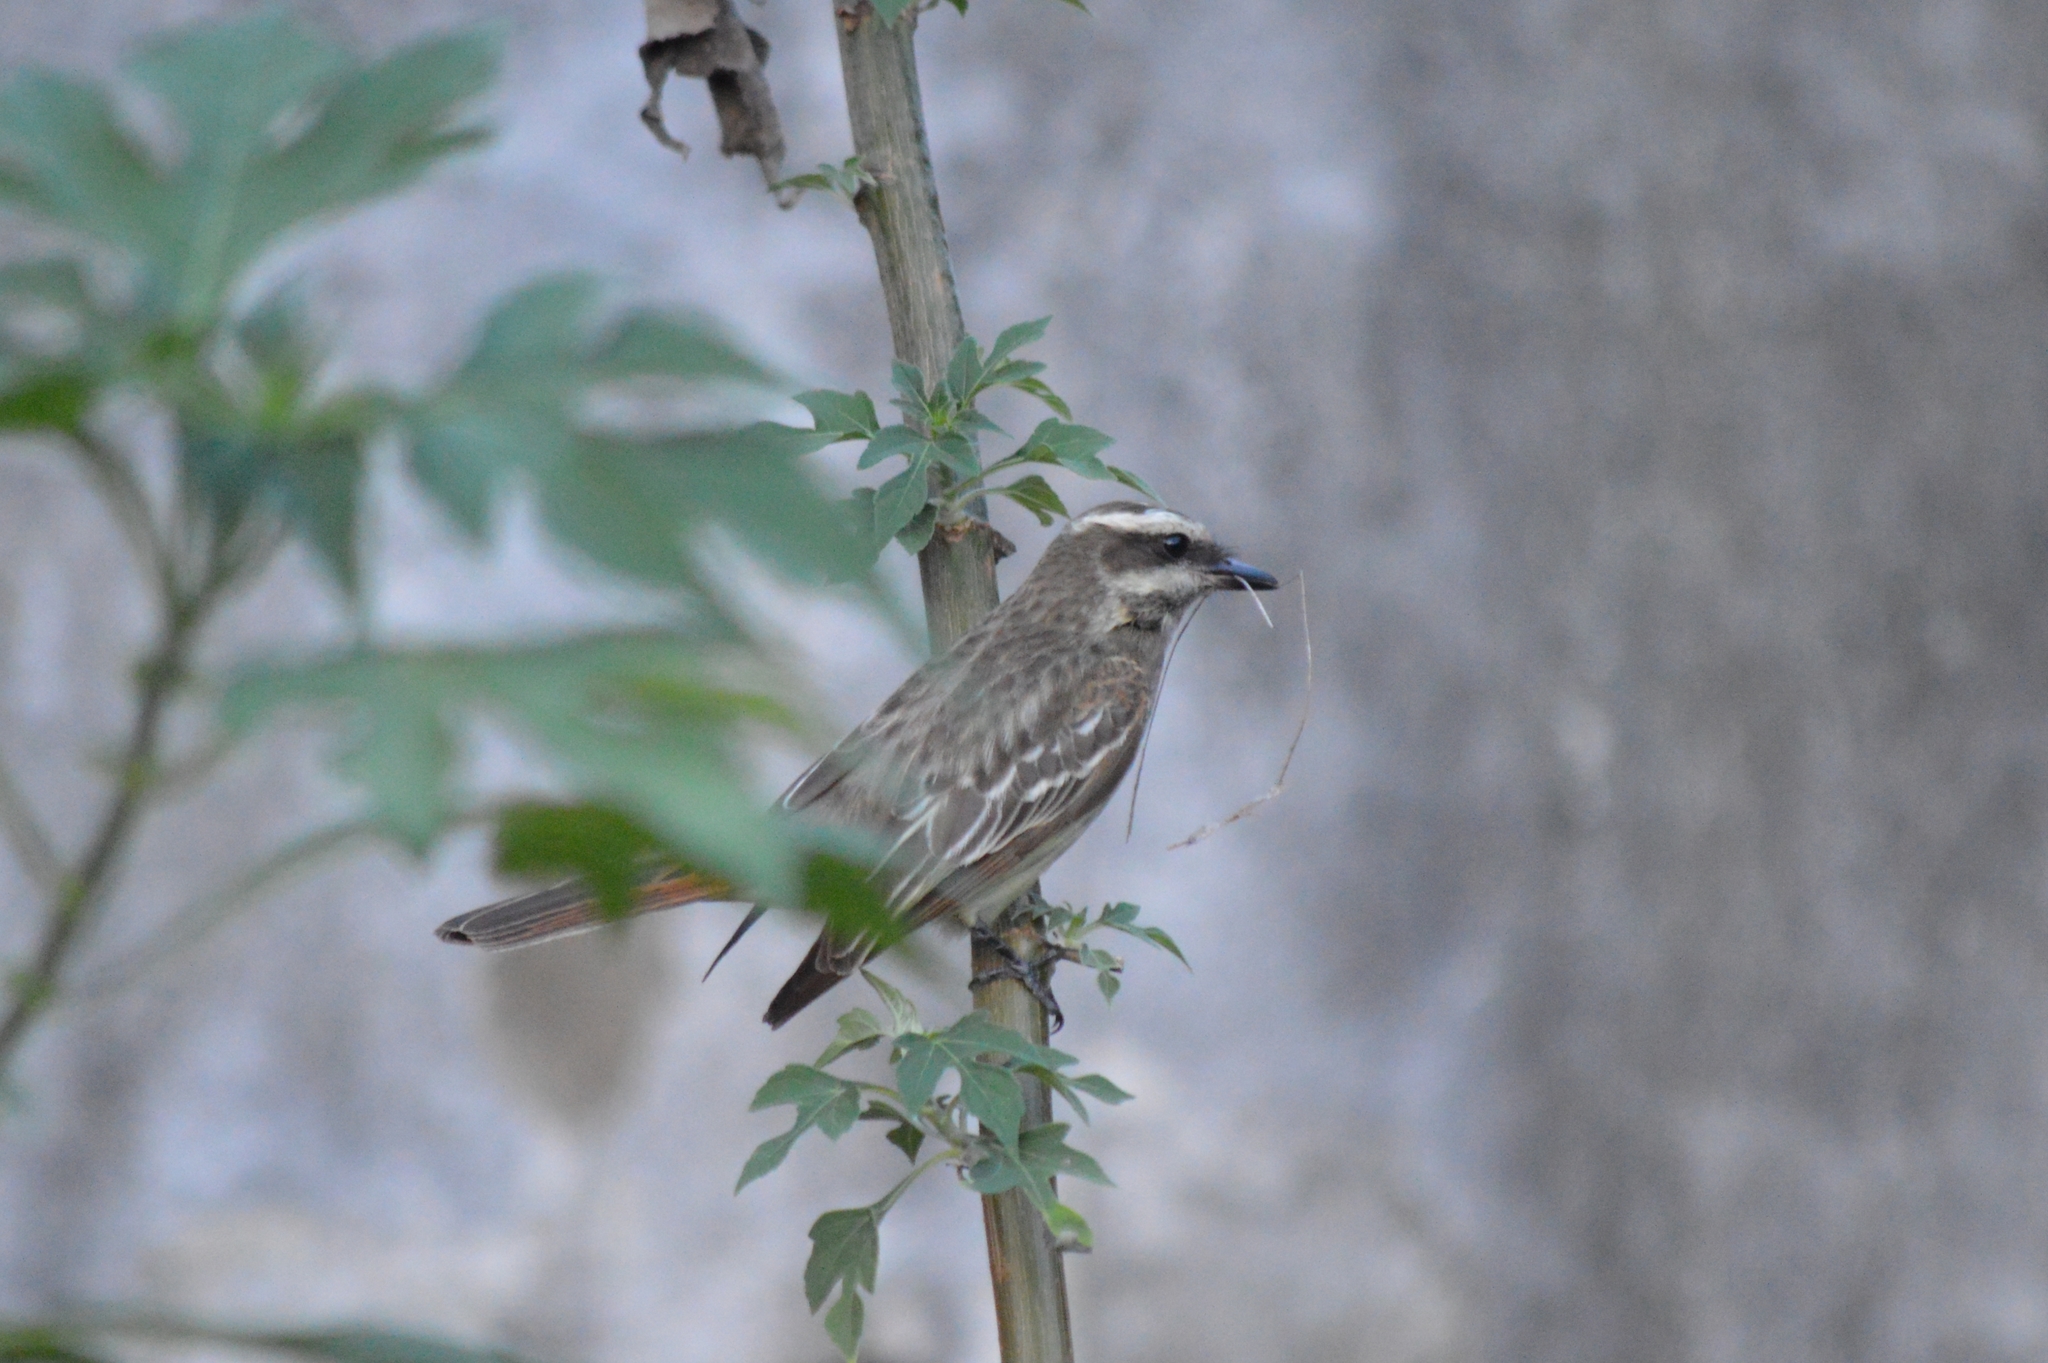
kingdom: Animalia
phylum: Chordata
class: Aves
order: Passeriformes
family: Tyrannidae
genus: Empidonomus
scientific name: Empidonomus varius
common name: Variegated flycatcher
